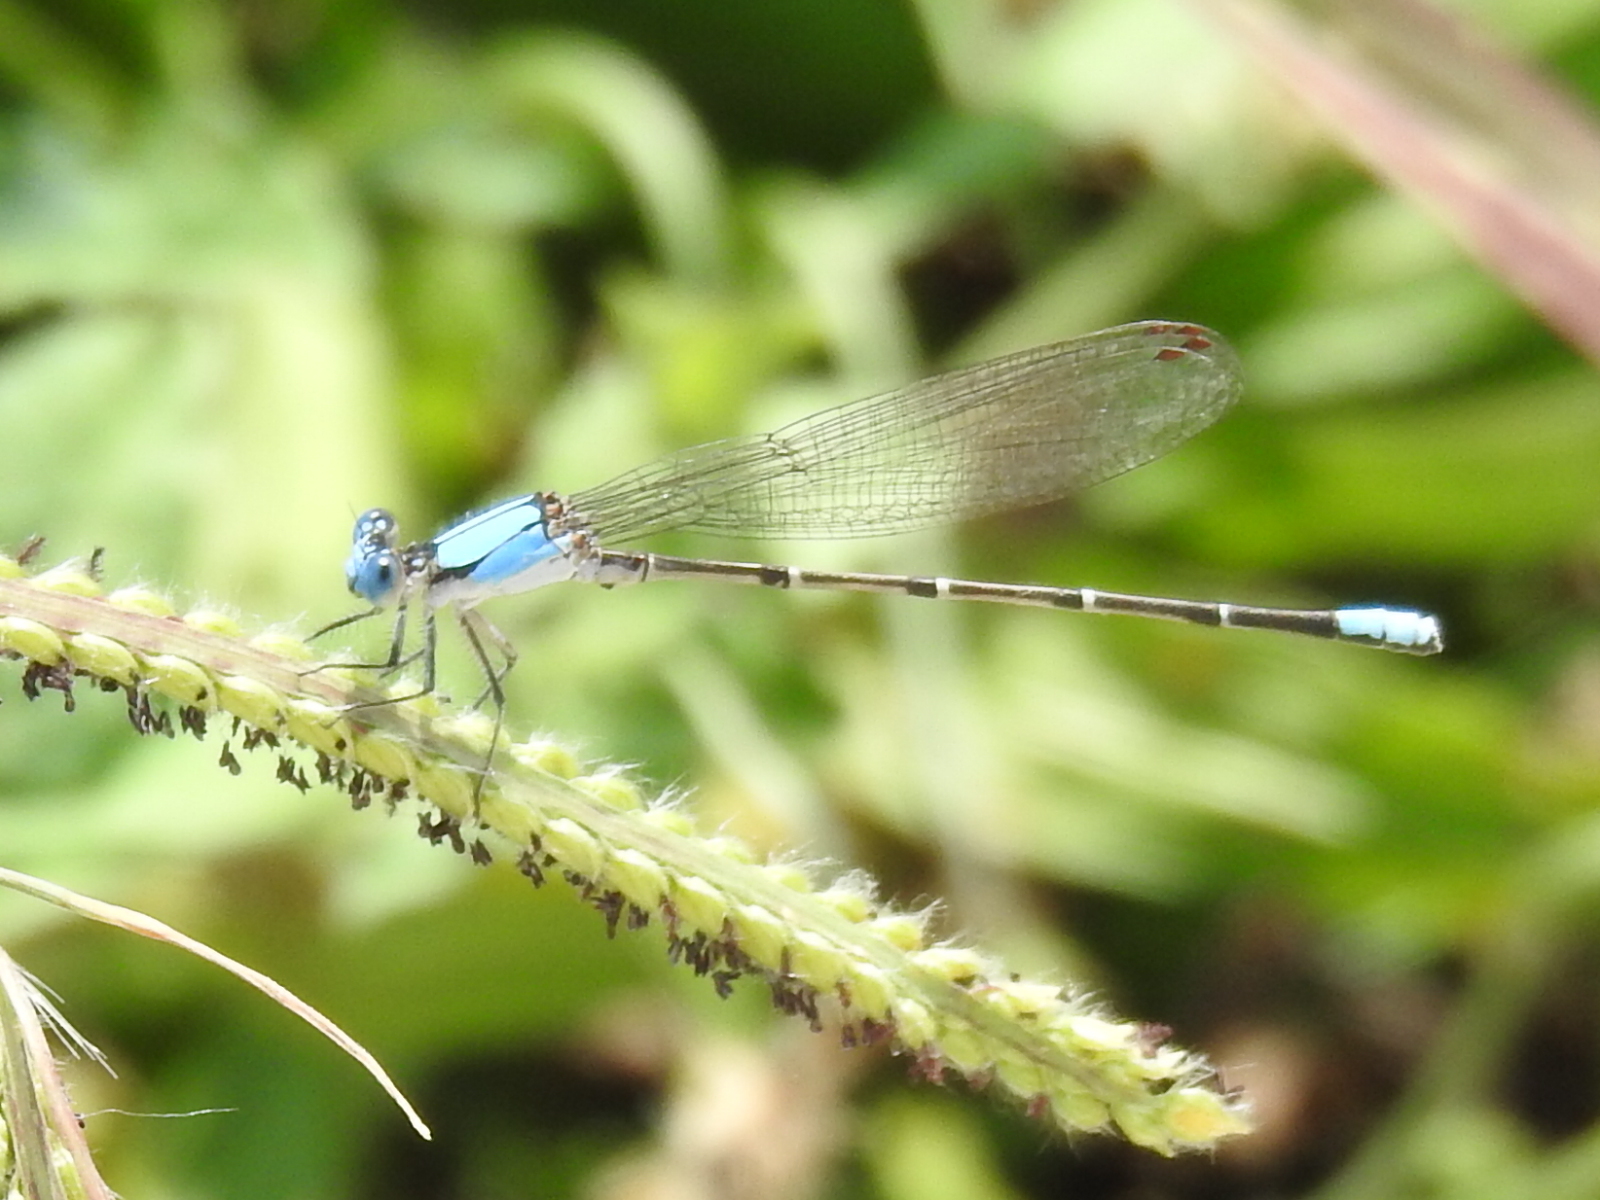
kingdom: Animalia
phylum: Arthropoda
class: Insecta
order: Odonata
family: Coenagrionidae
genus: Argia
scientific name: Argia apicalis
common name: Blue-fronted dancer
